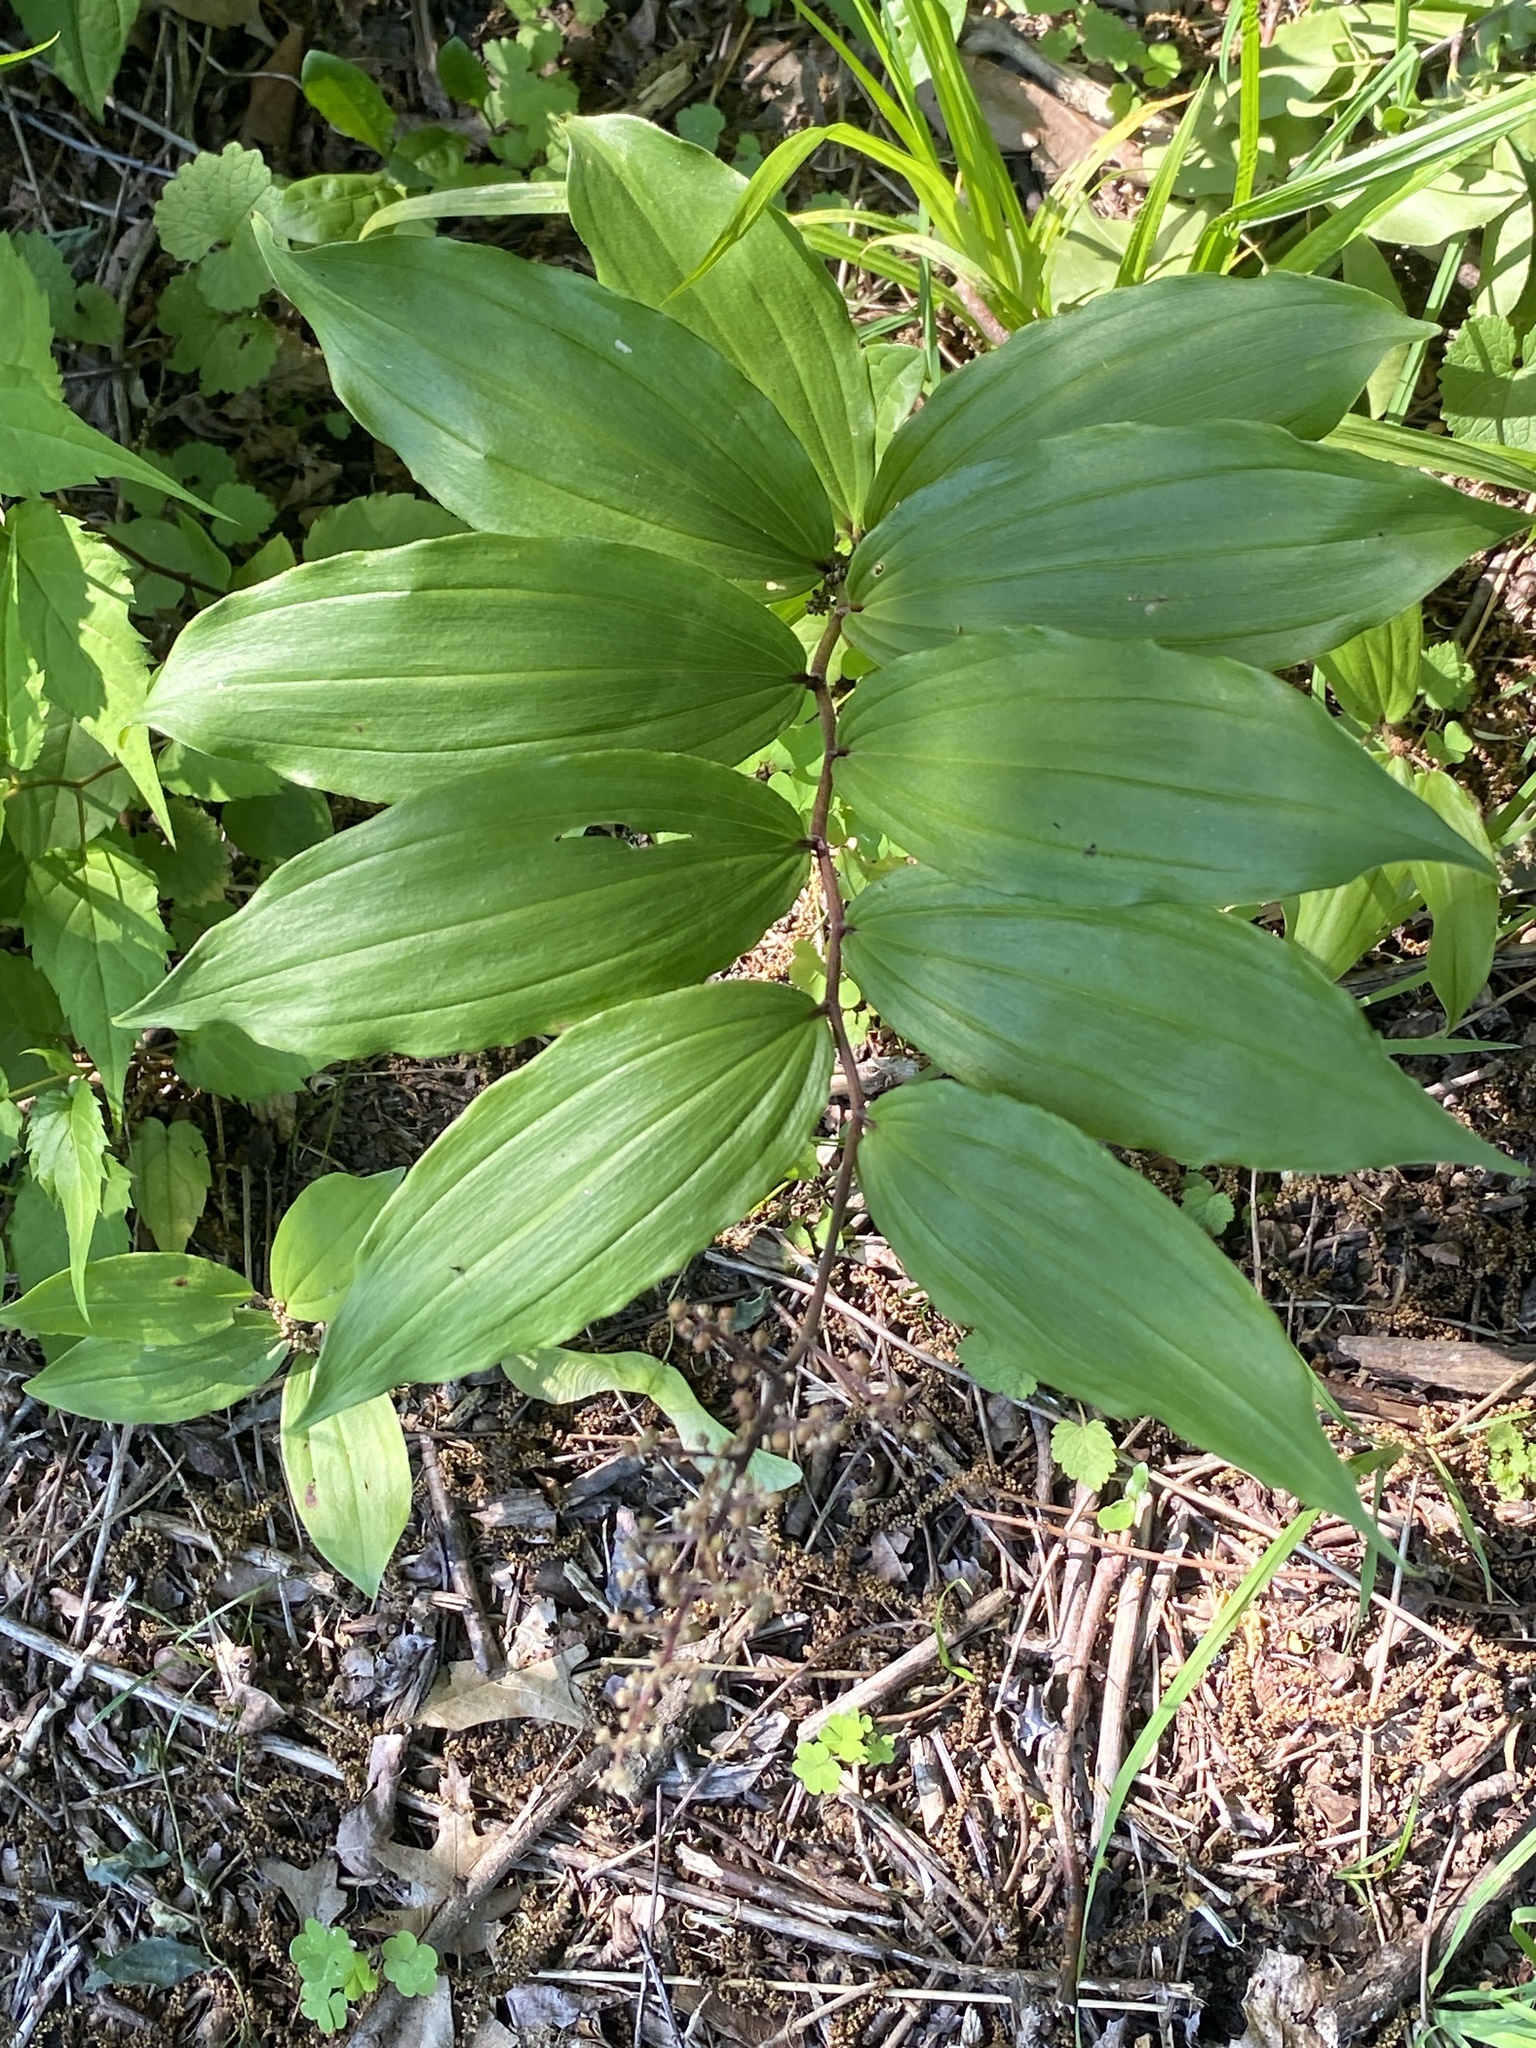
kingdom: Plantae
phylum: Tracheophyta
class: Liliopsida
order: Asparagales
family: Asparagaceae
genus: Maianthemum
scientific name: Maianthemum racemosum
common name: False spikenard
